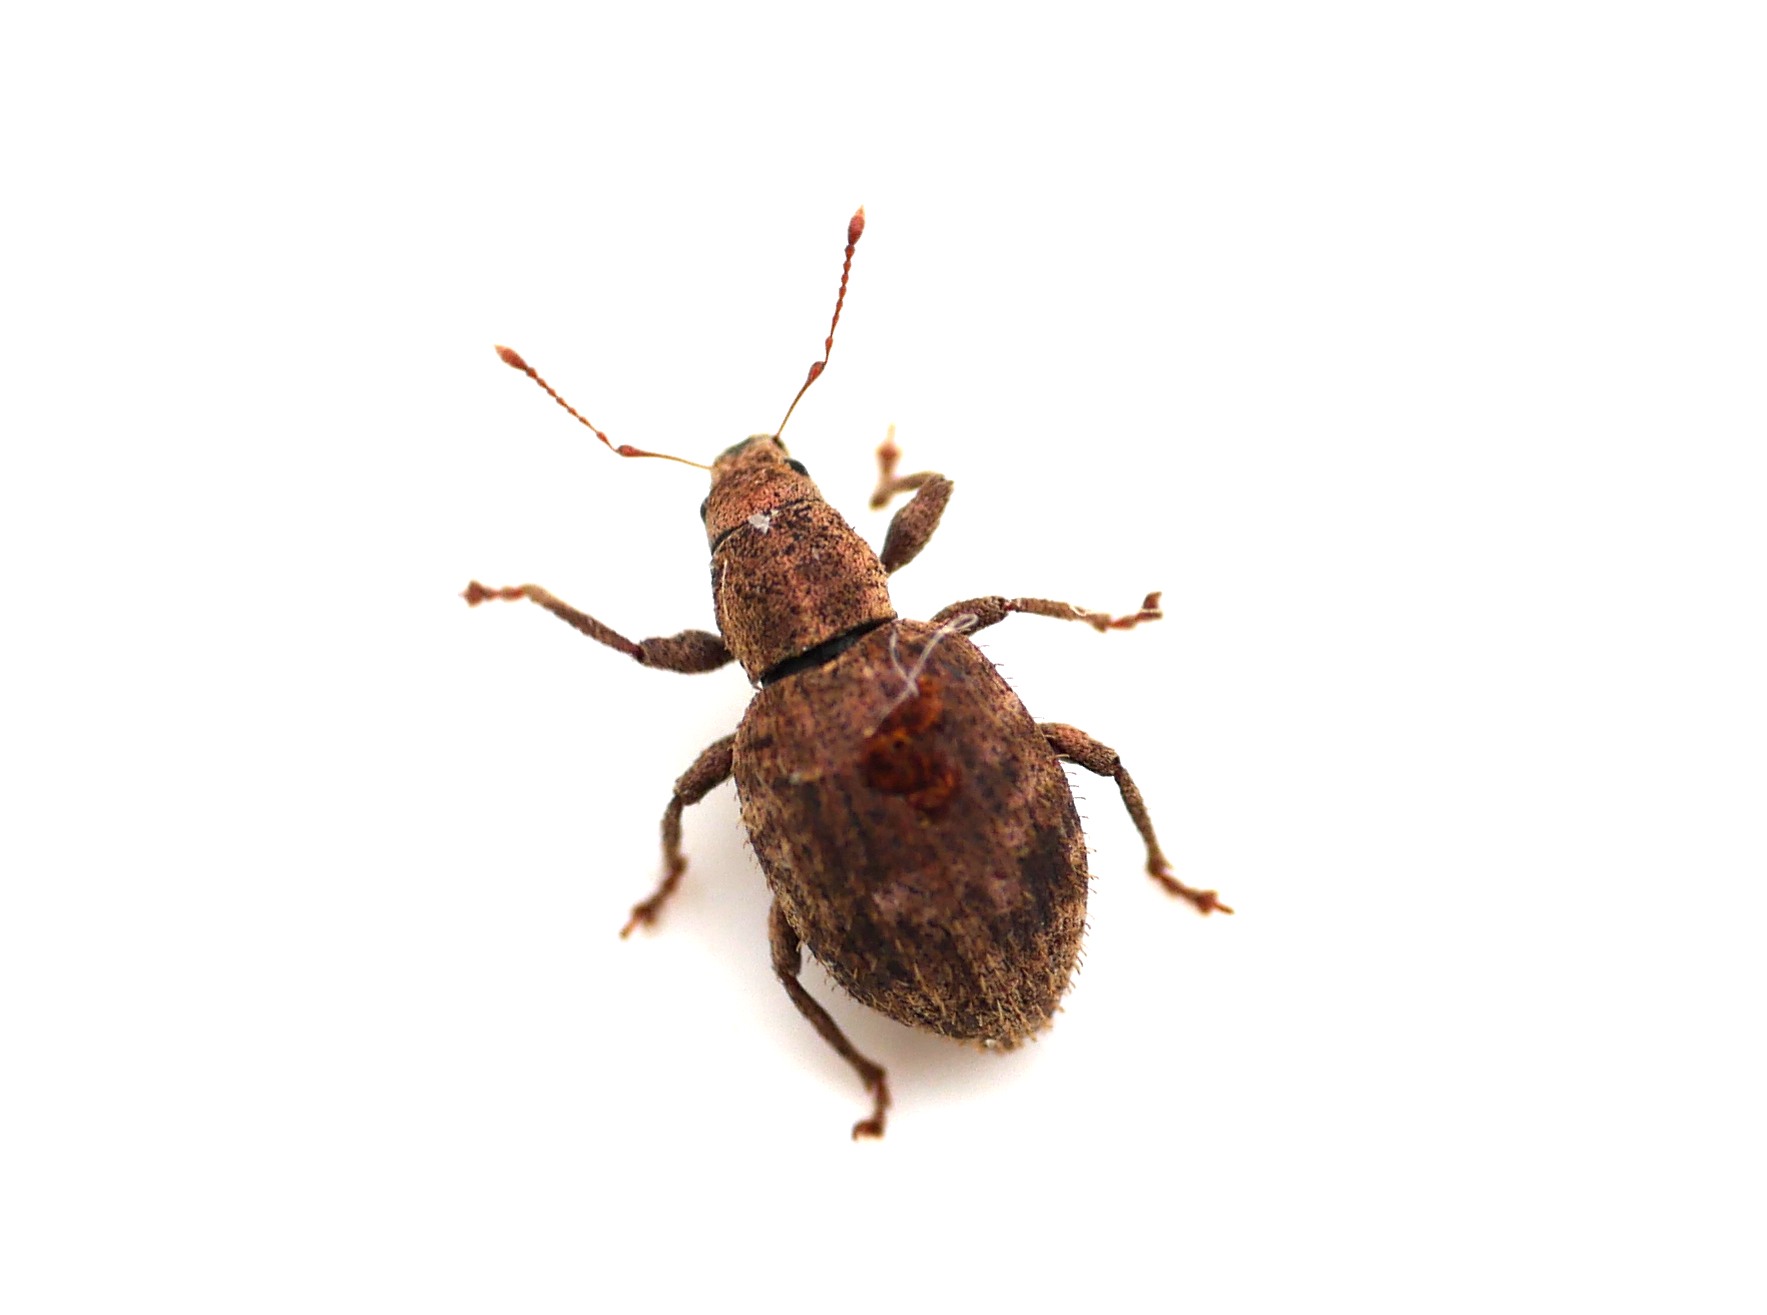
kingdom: Animalia
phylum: Arthropoda
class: Insecta
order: Coleoptera
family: Curculionidae
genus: Sciaphilus
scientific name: Sciaphilus asperatus
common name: Weevil
